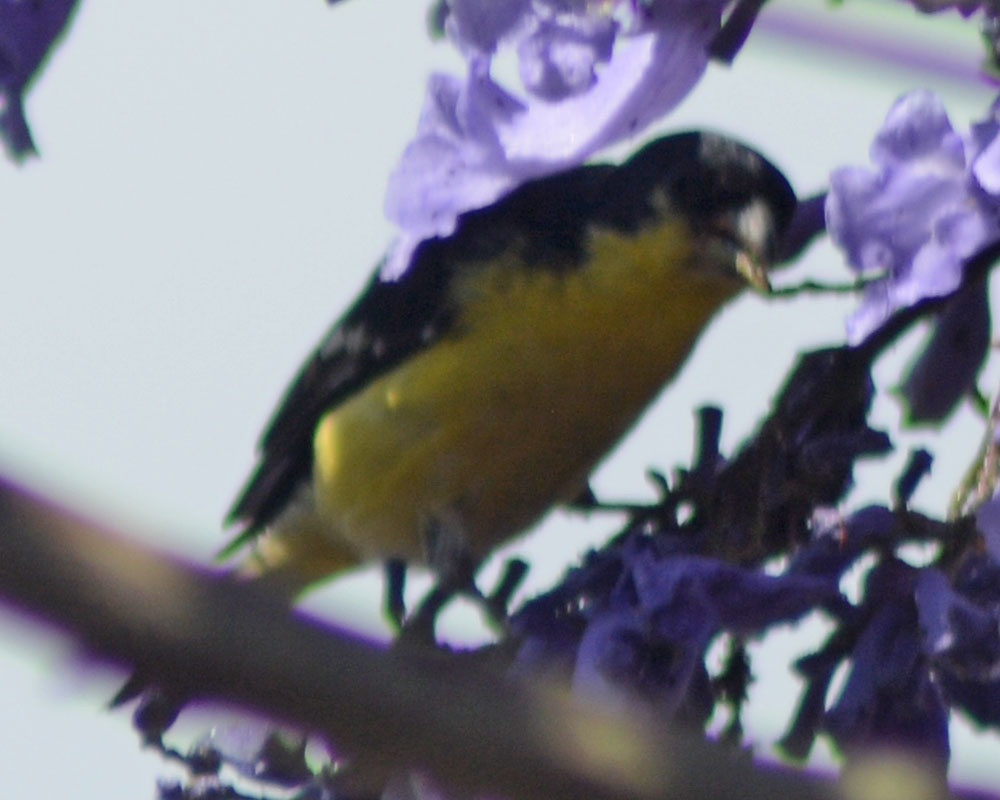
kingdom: Animalia
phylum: Chordata
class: Aves
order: Passeriformes
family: Fringillidae
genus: Spinus
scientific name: Spinus psaltria
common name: Lesser goldfinch
